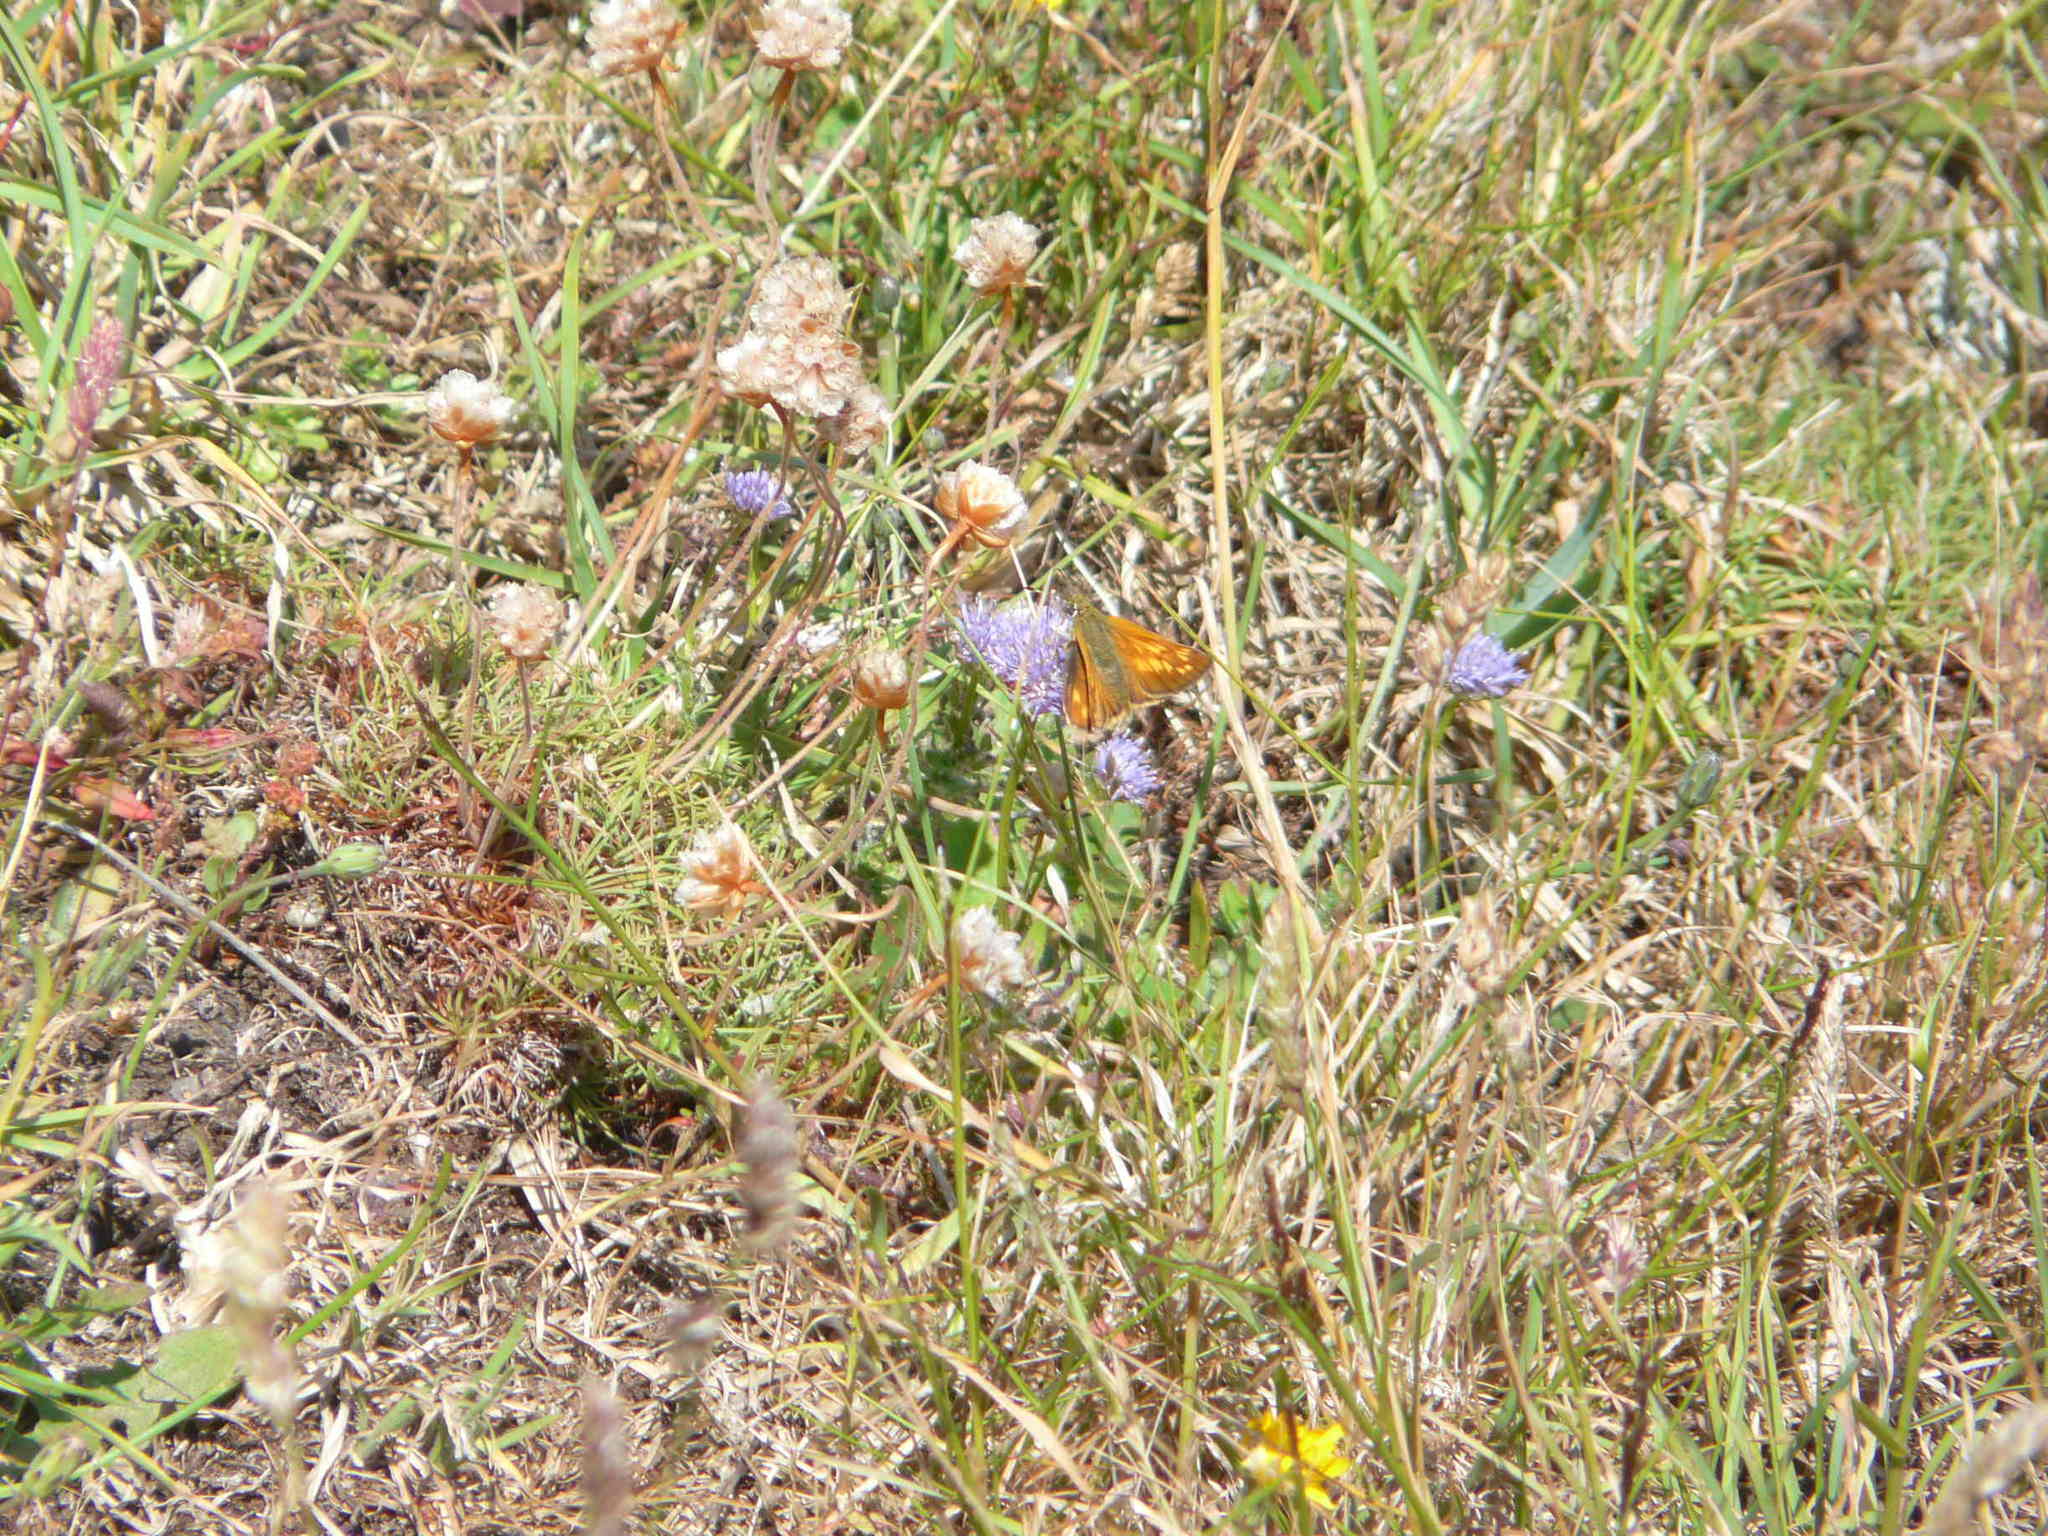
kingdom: Animalia
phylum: Arthropoda
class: Insecta
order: Lepidoptera
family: Hesperiidae
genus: Ochlodes
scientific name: Ochlodes venata
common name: Large skipper
